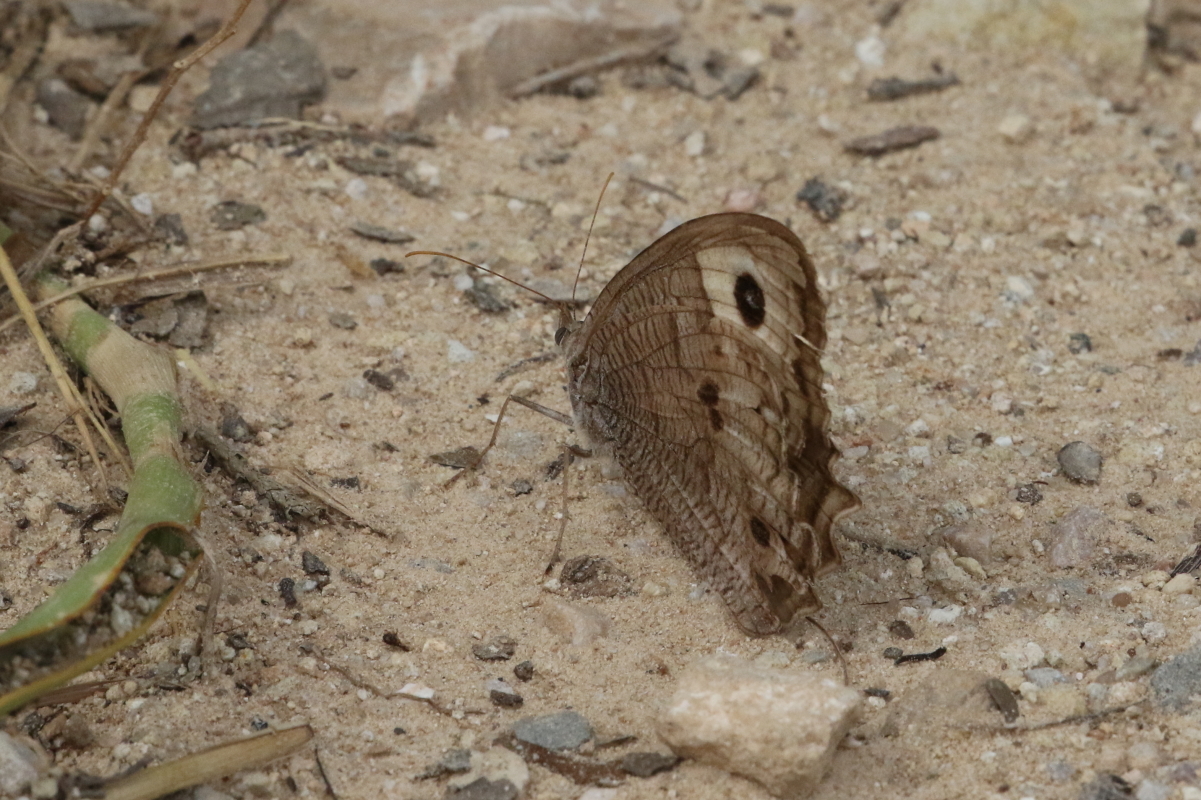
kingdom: Animalia
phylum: Arthropoda
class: Insecta
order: Lepidoptera
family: Nymphalidae
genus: Cercyonis
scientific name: Cercyonis pegala
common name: Common wood-nymph
